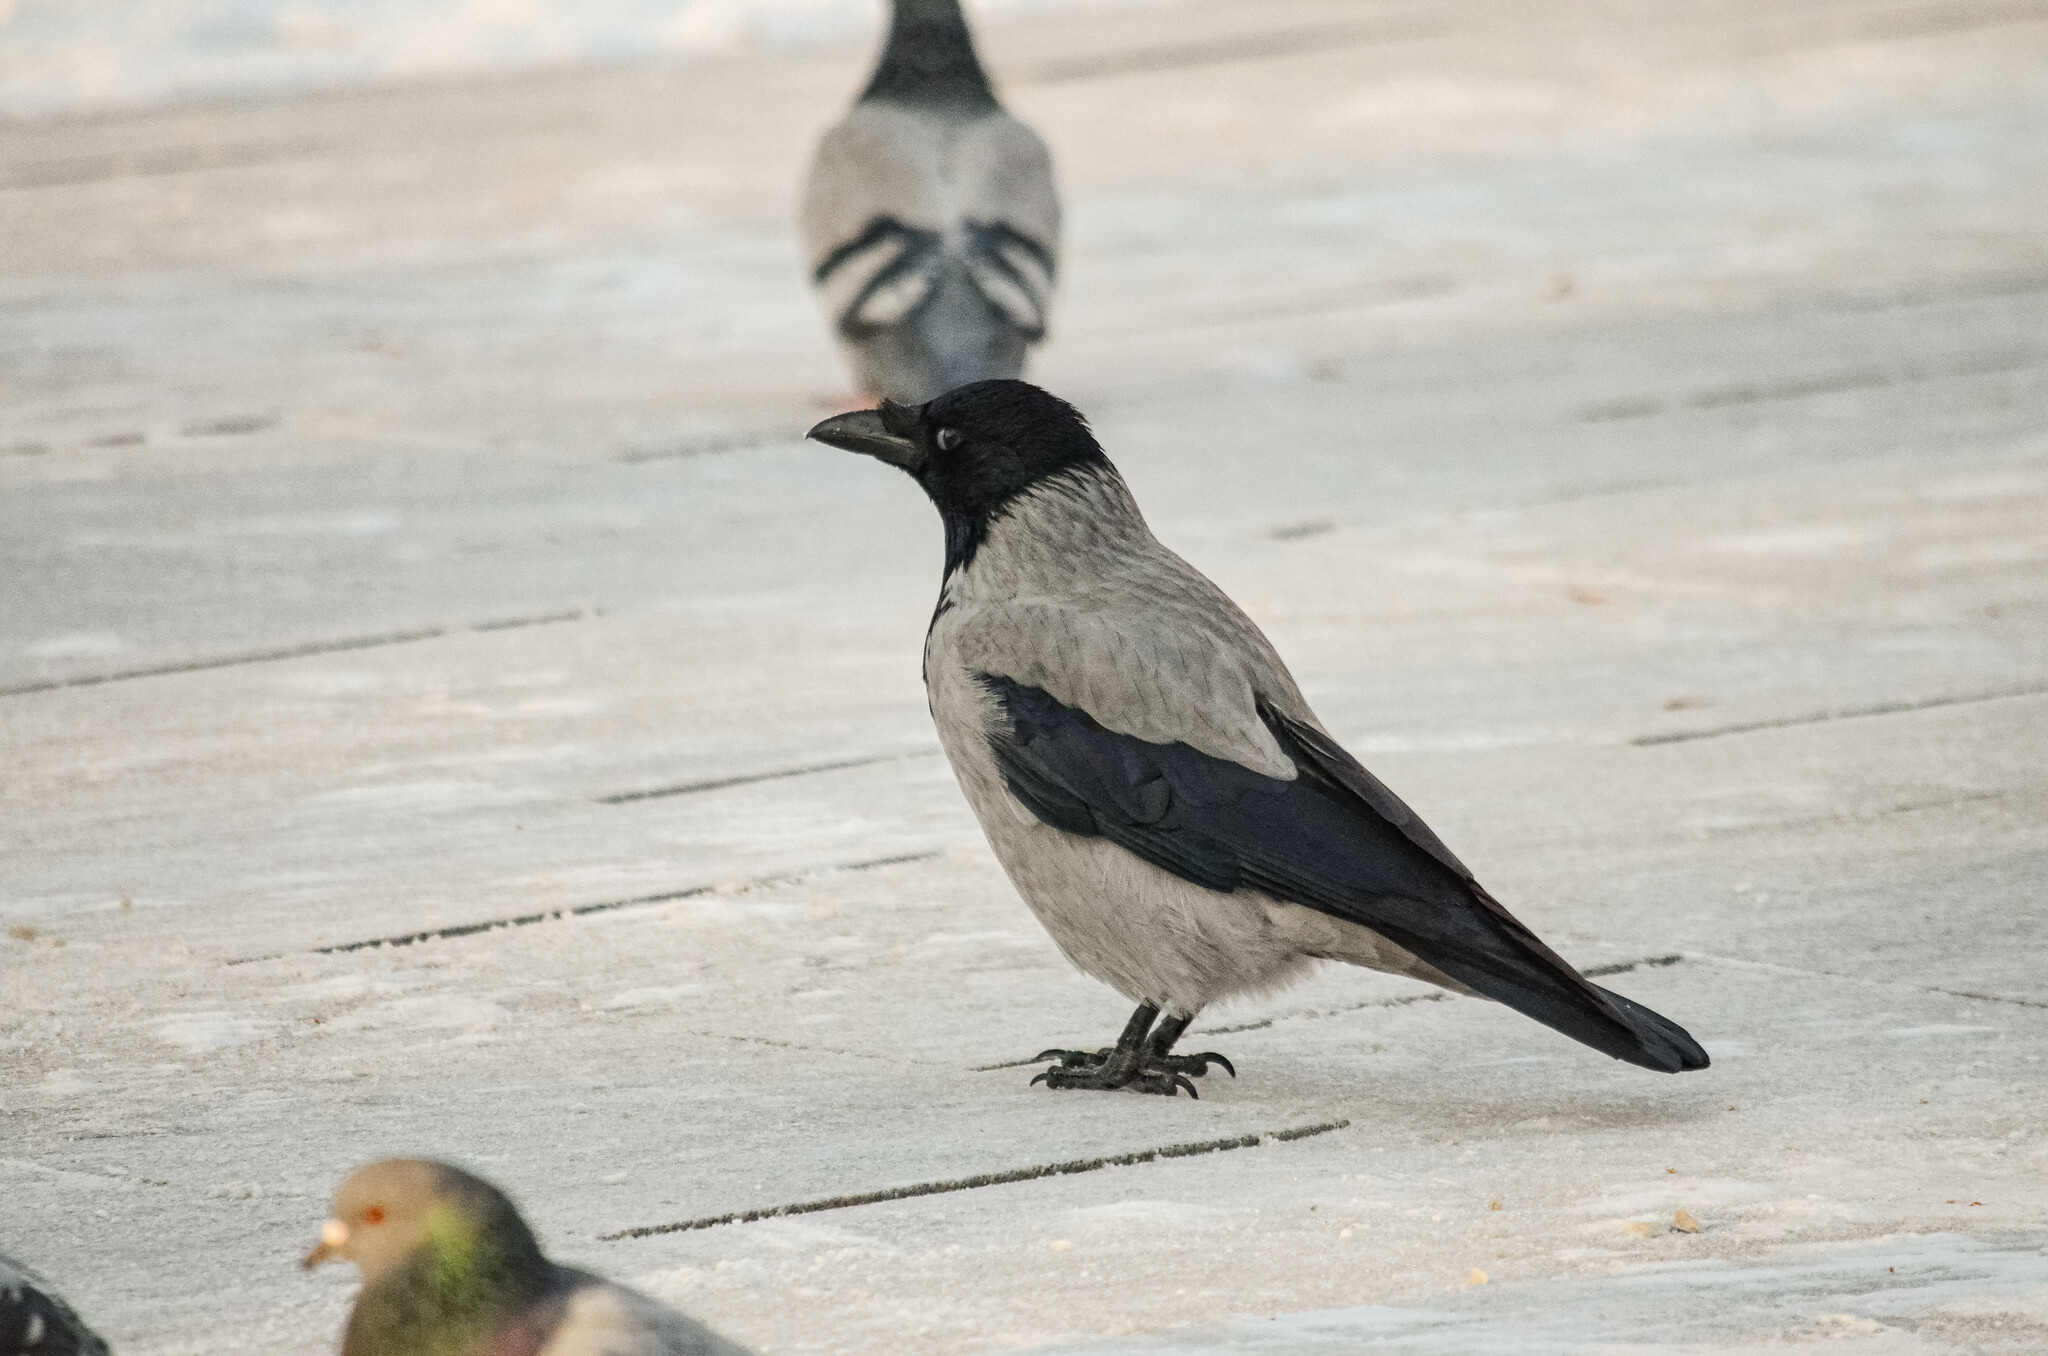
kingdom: Animalia
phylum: Chordata
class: Aves
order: Passeriformes
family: Corvidae
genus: Corvus
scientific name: Corvus cornix
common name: Hooded crow
